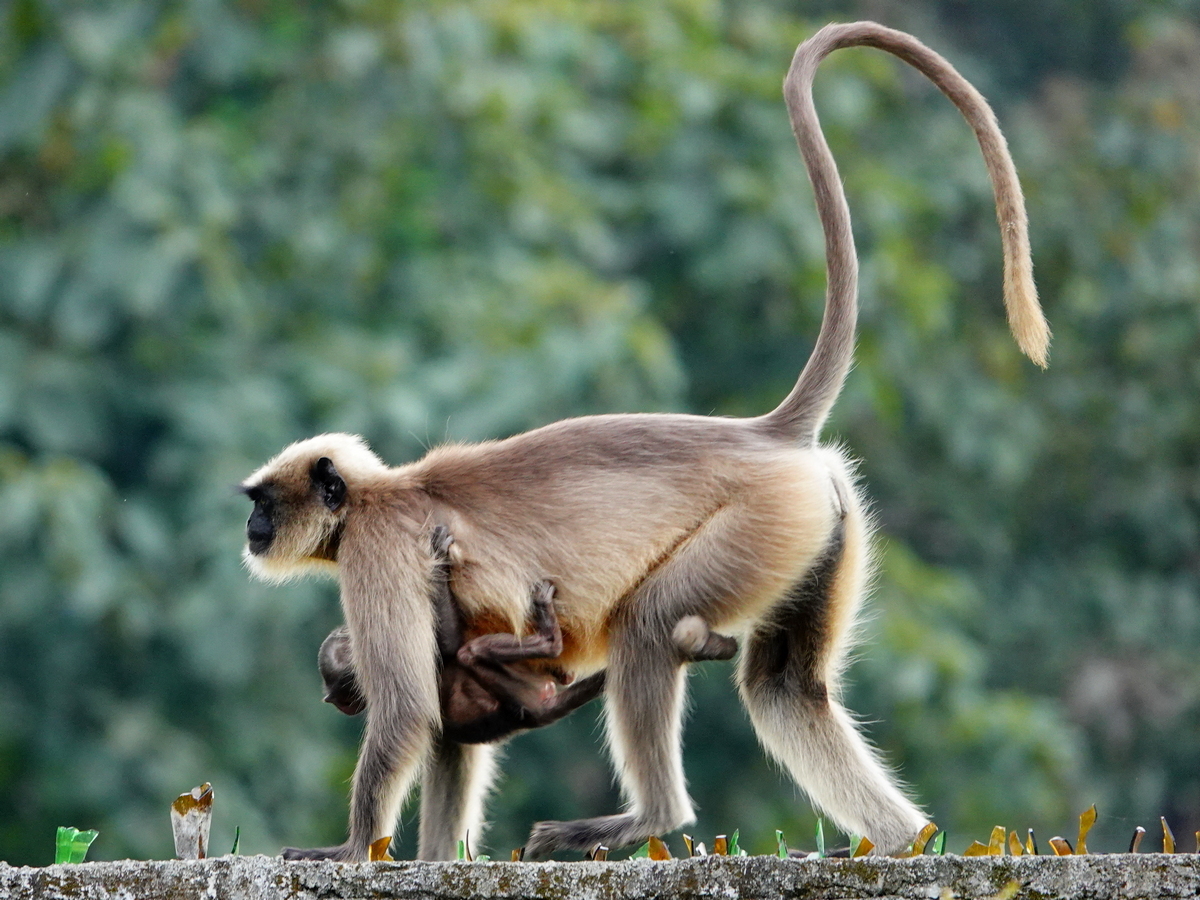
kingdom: Animalia
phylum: Chordata
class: Mammalia
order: Primates
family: Cercopithecidae
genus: Semnopithecus
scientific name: Semnopithecus hypoleucos
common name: Black-footed gray langur
